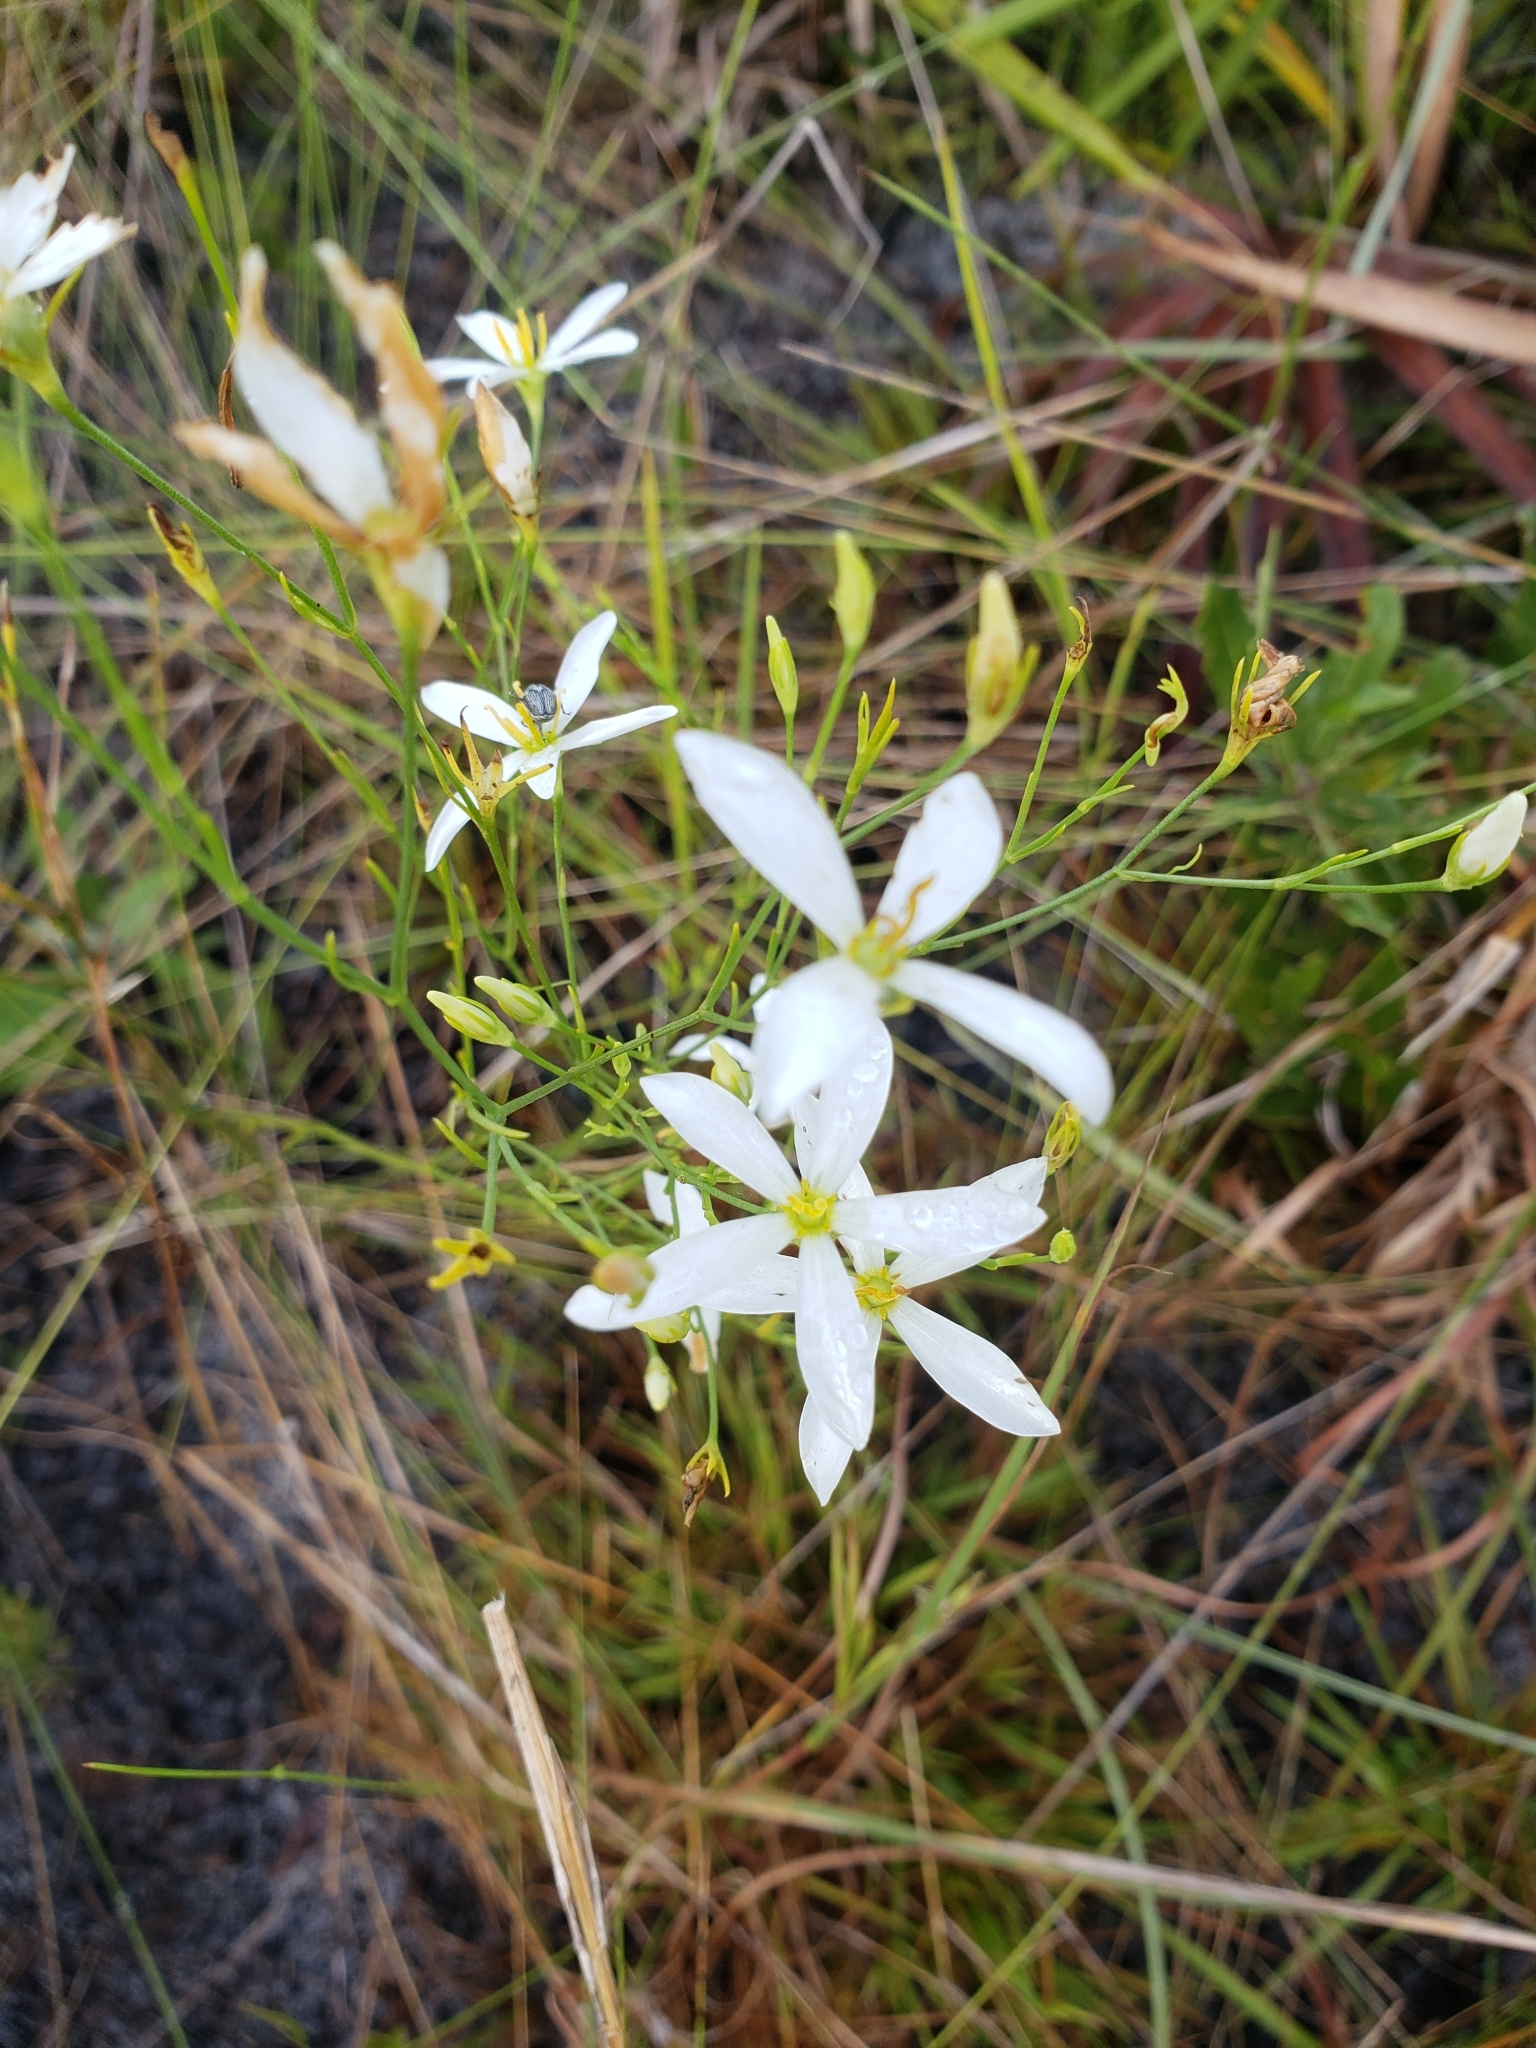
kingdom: Plantae
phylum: Tracheophyta
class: Magnoliopsida
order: Gentianales
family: Gentianaceae
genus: Sabatia
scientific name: Sabatia brevifolia
